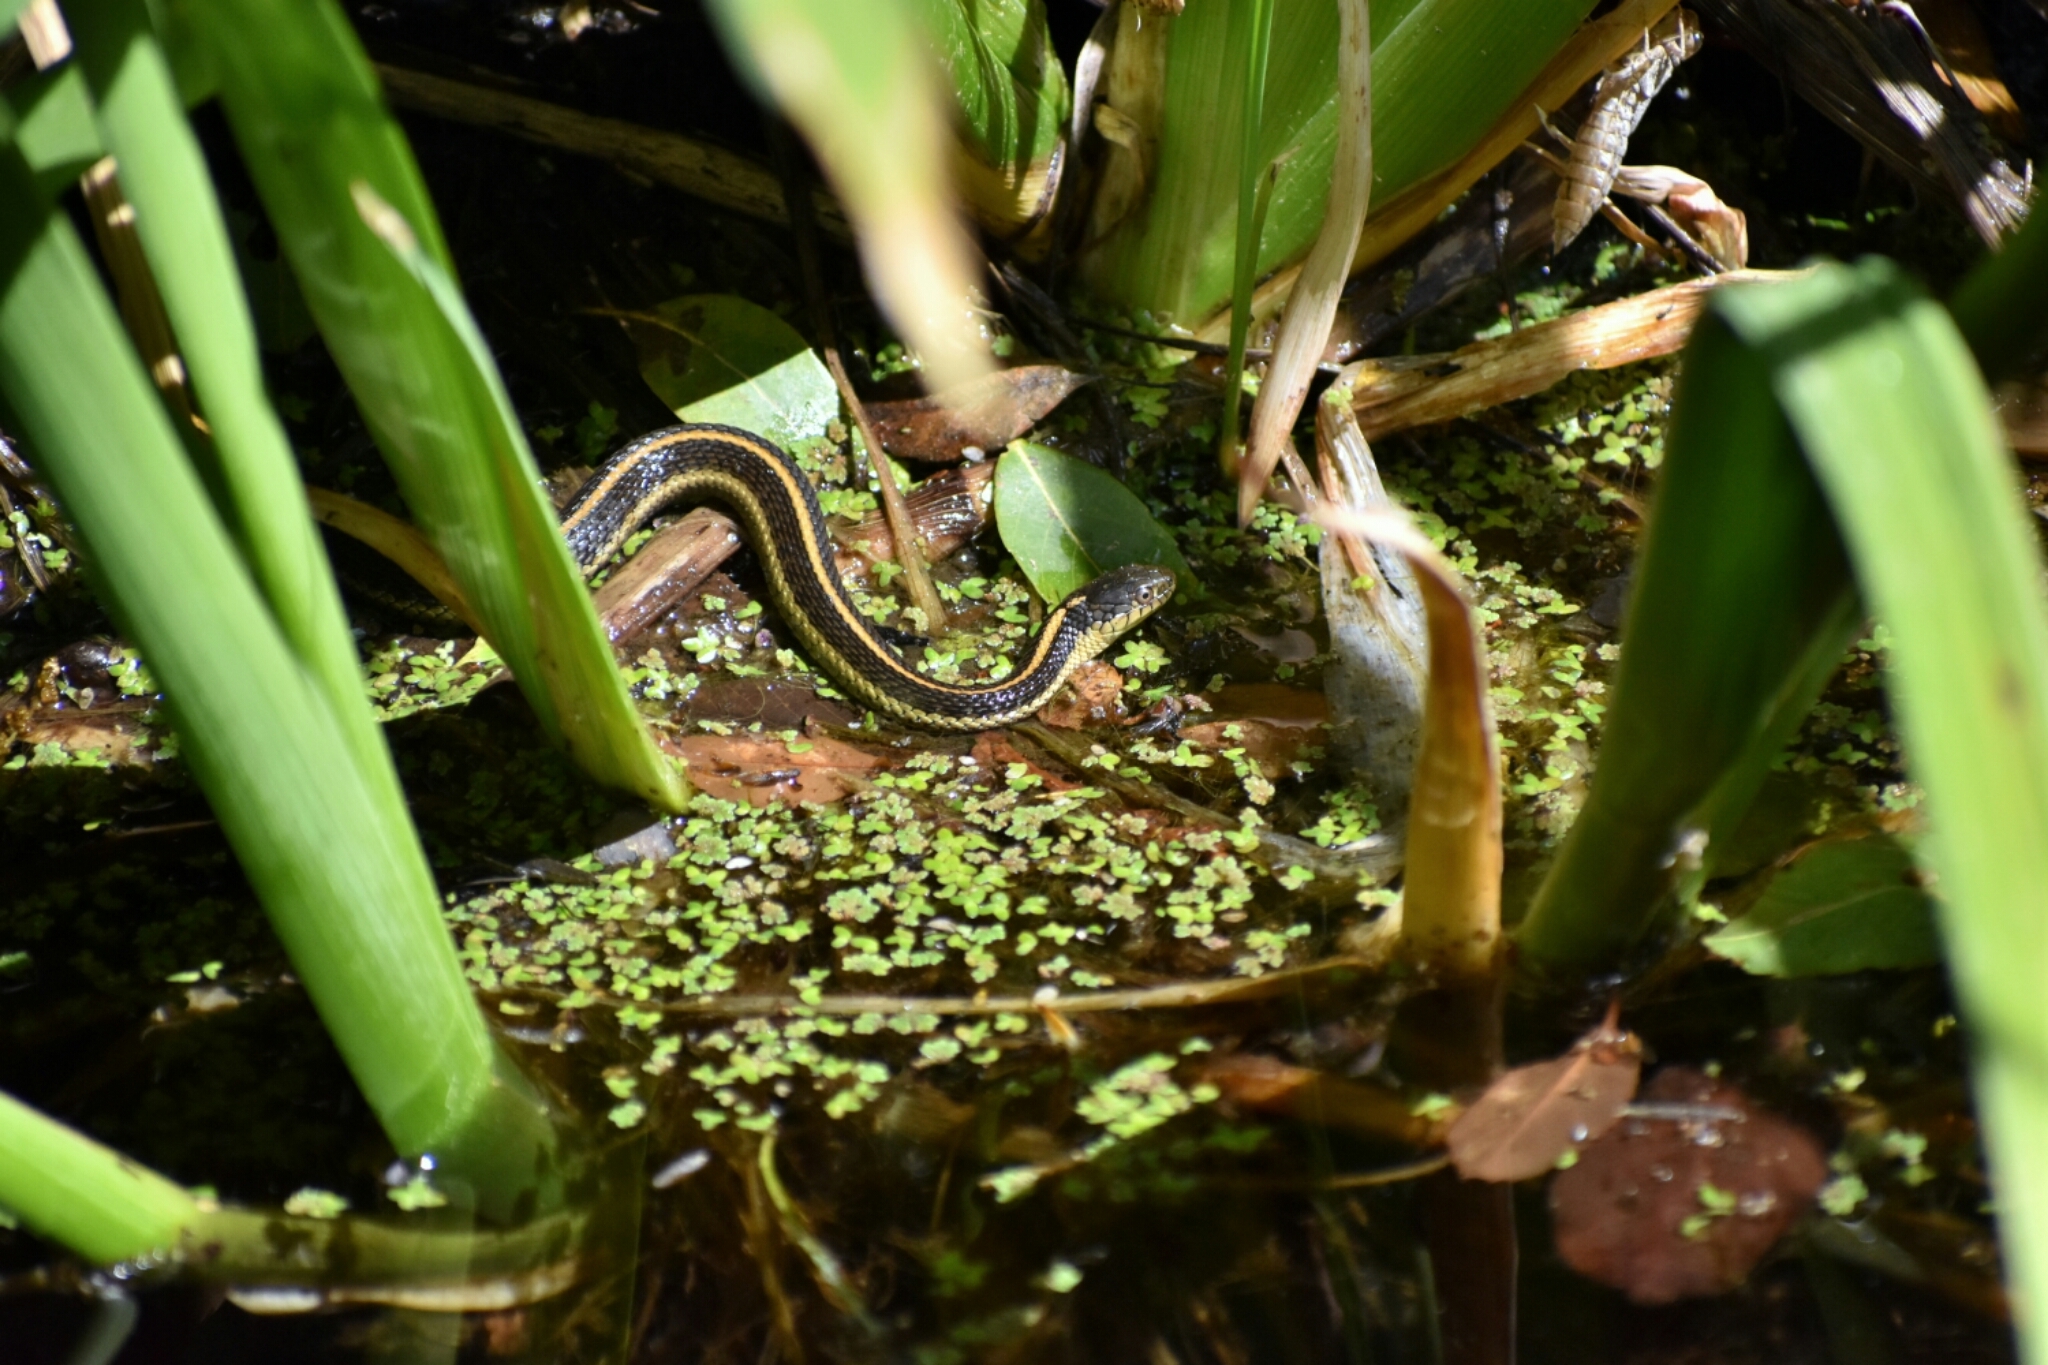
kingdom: Animalia
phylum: Chordata
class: Squamata
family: Colubridae
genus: Thamnophis
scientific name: Thamnophis atratus
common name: Pacific coast aquatic garter snake
